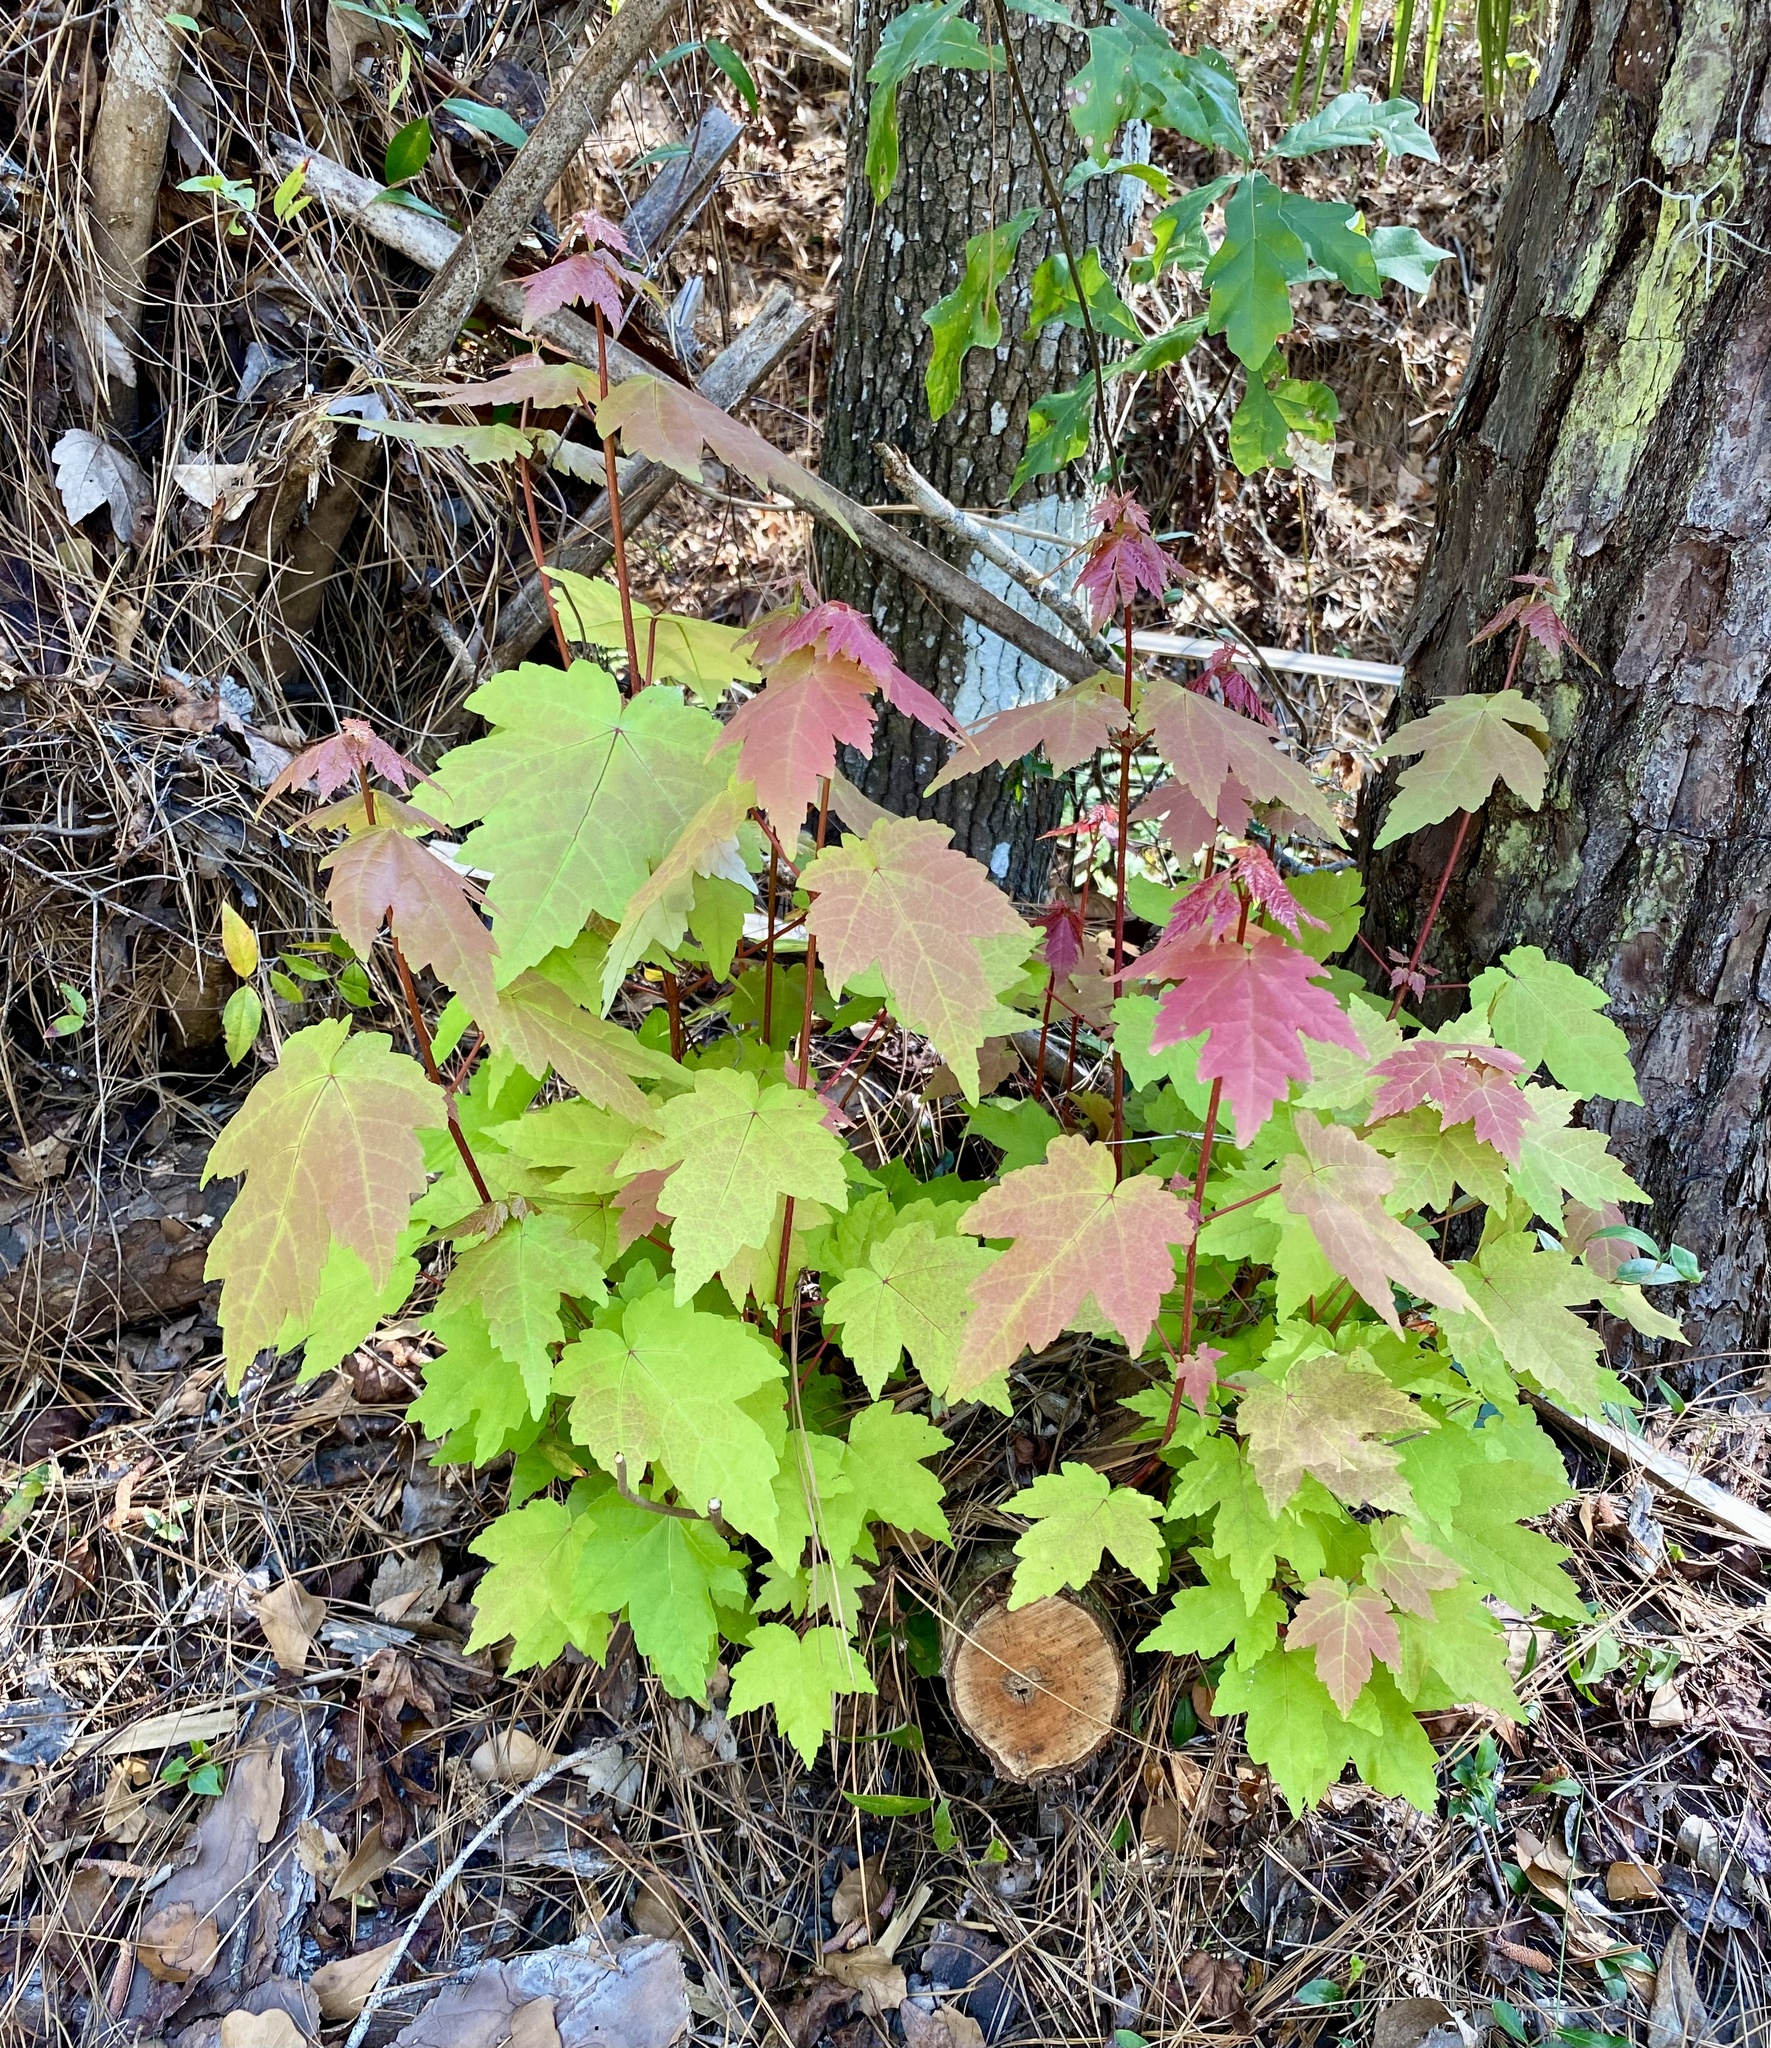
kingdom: Plantae
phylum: Tracheophyta
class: Magnoliopsida
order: Sapindales
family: Sapindaceae
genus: Acer
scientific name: Acer rubrum
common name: Red maple
